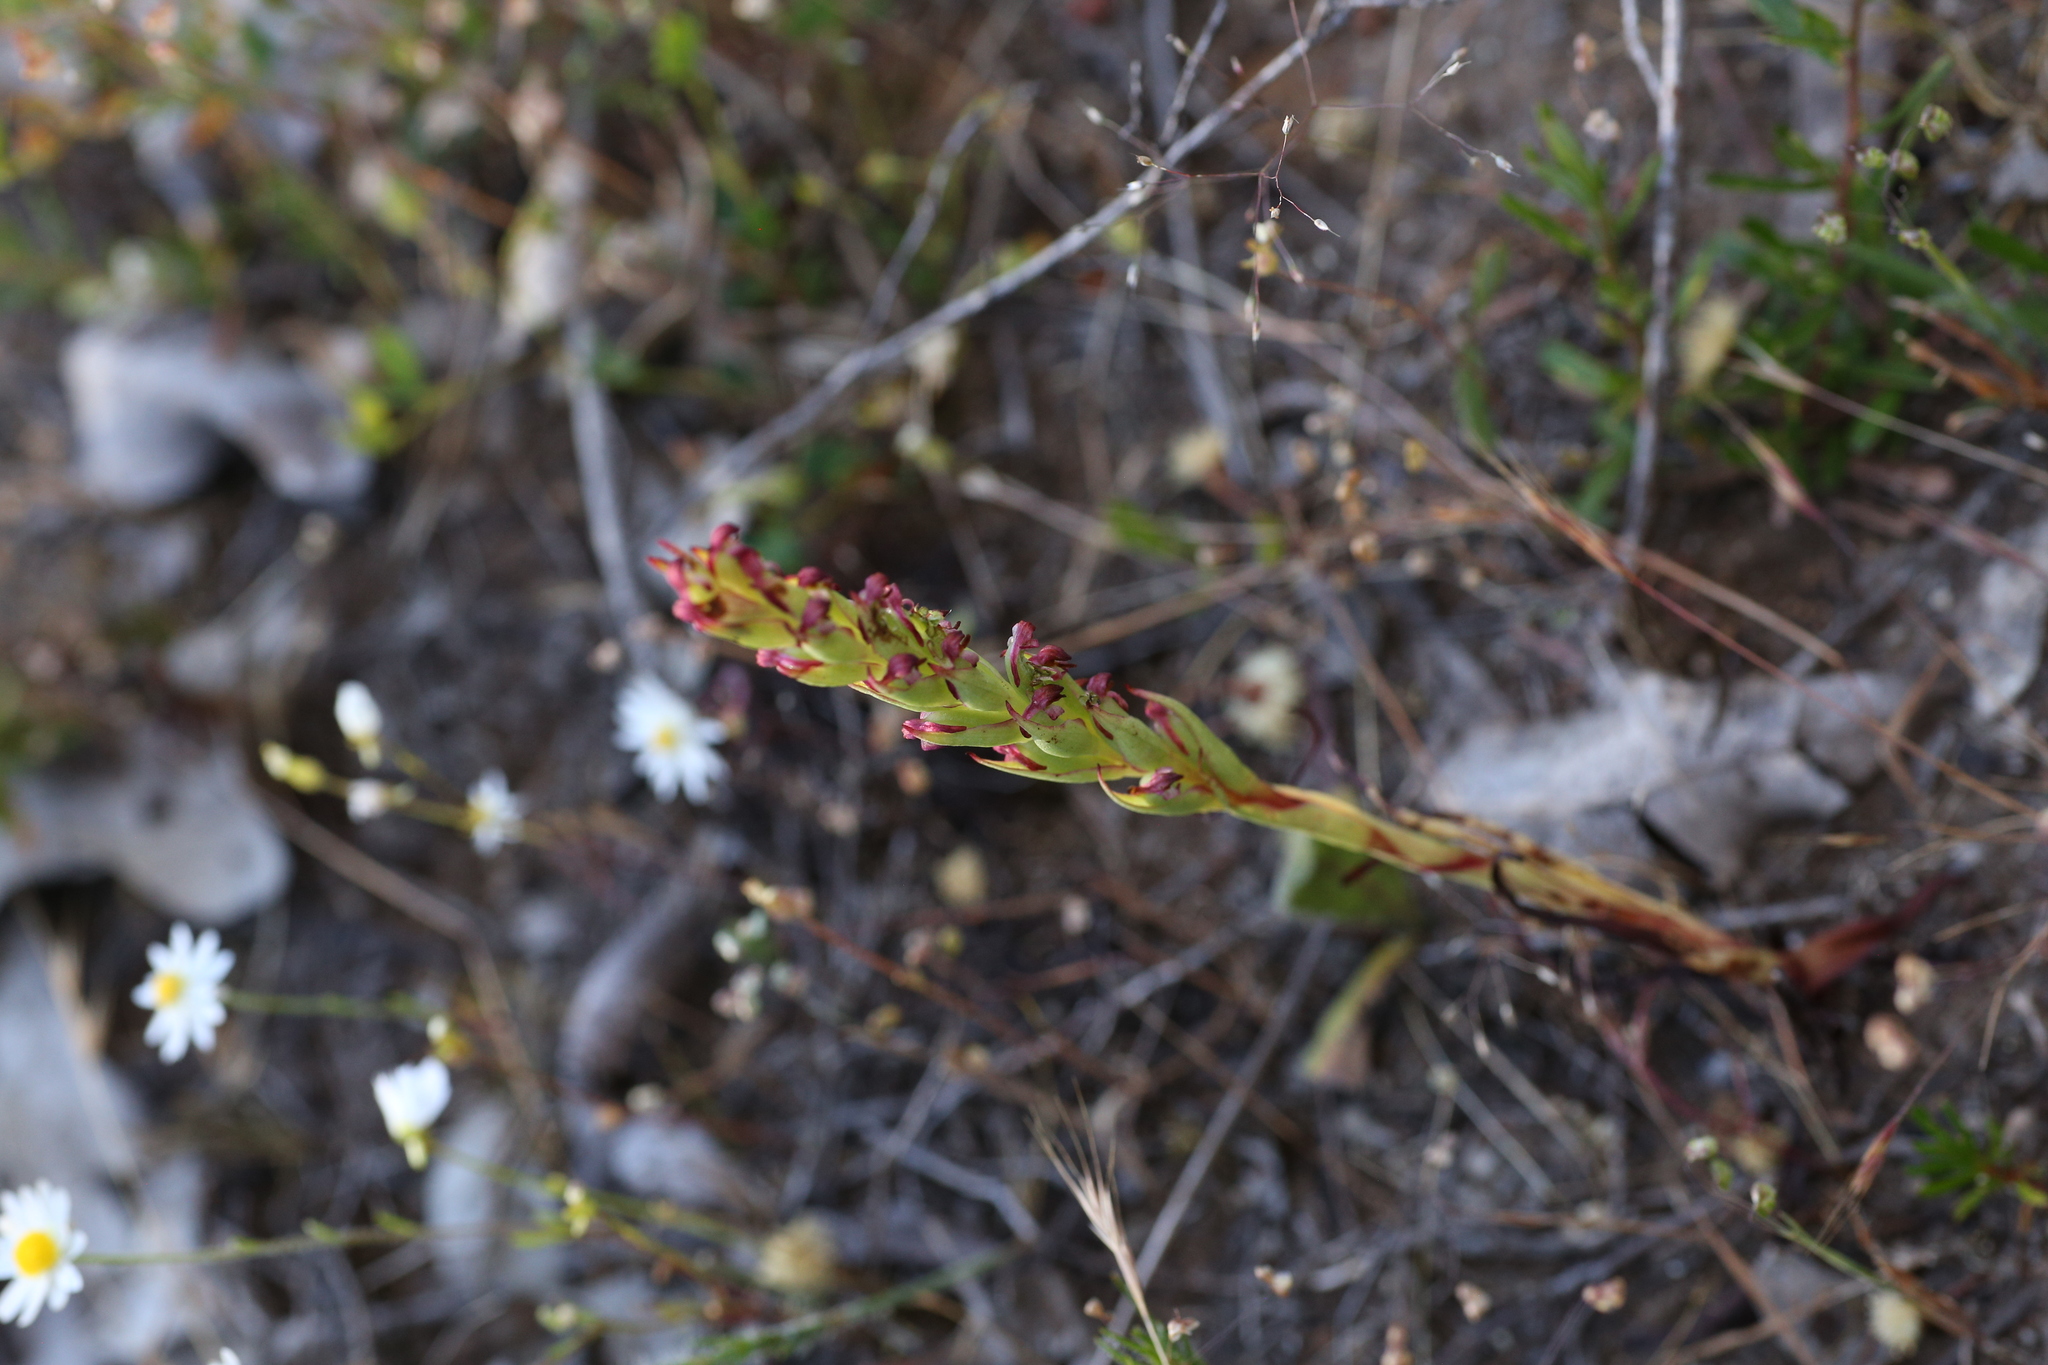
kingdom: Plantae
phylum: Tracheophyta
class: Liliopsida
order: Asparagales
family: Orchidaceae
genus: Disa
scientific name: Disa bracteata
